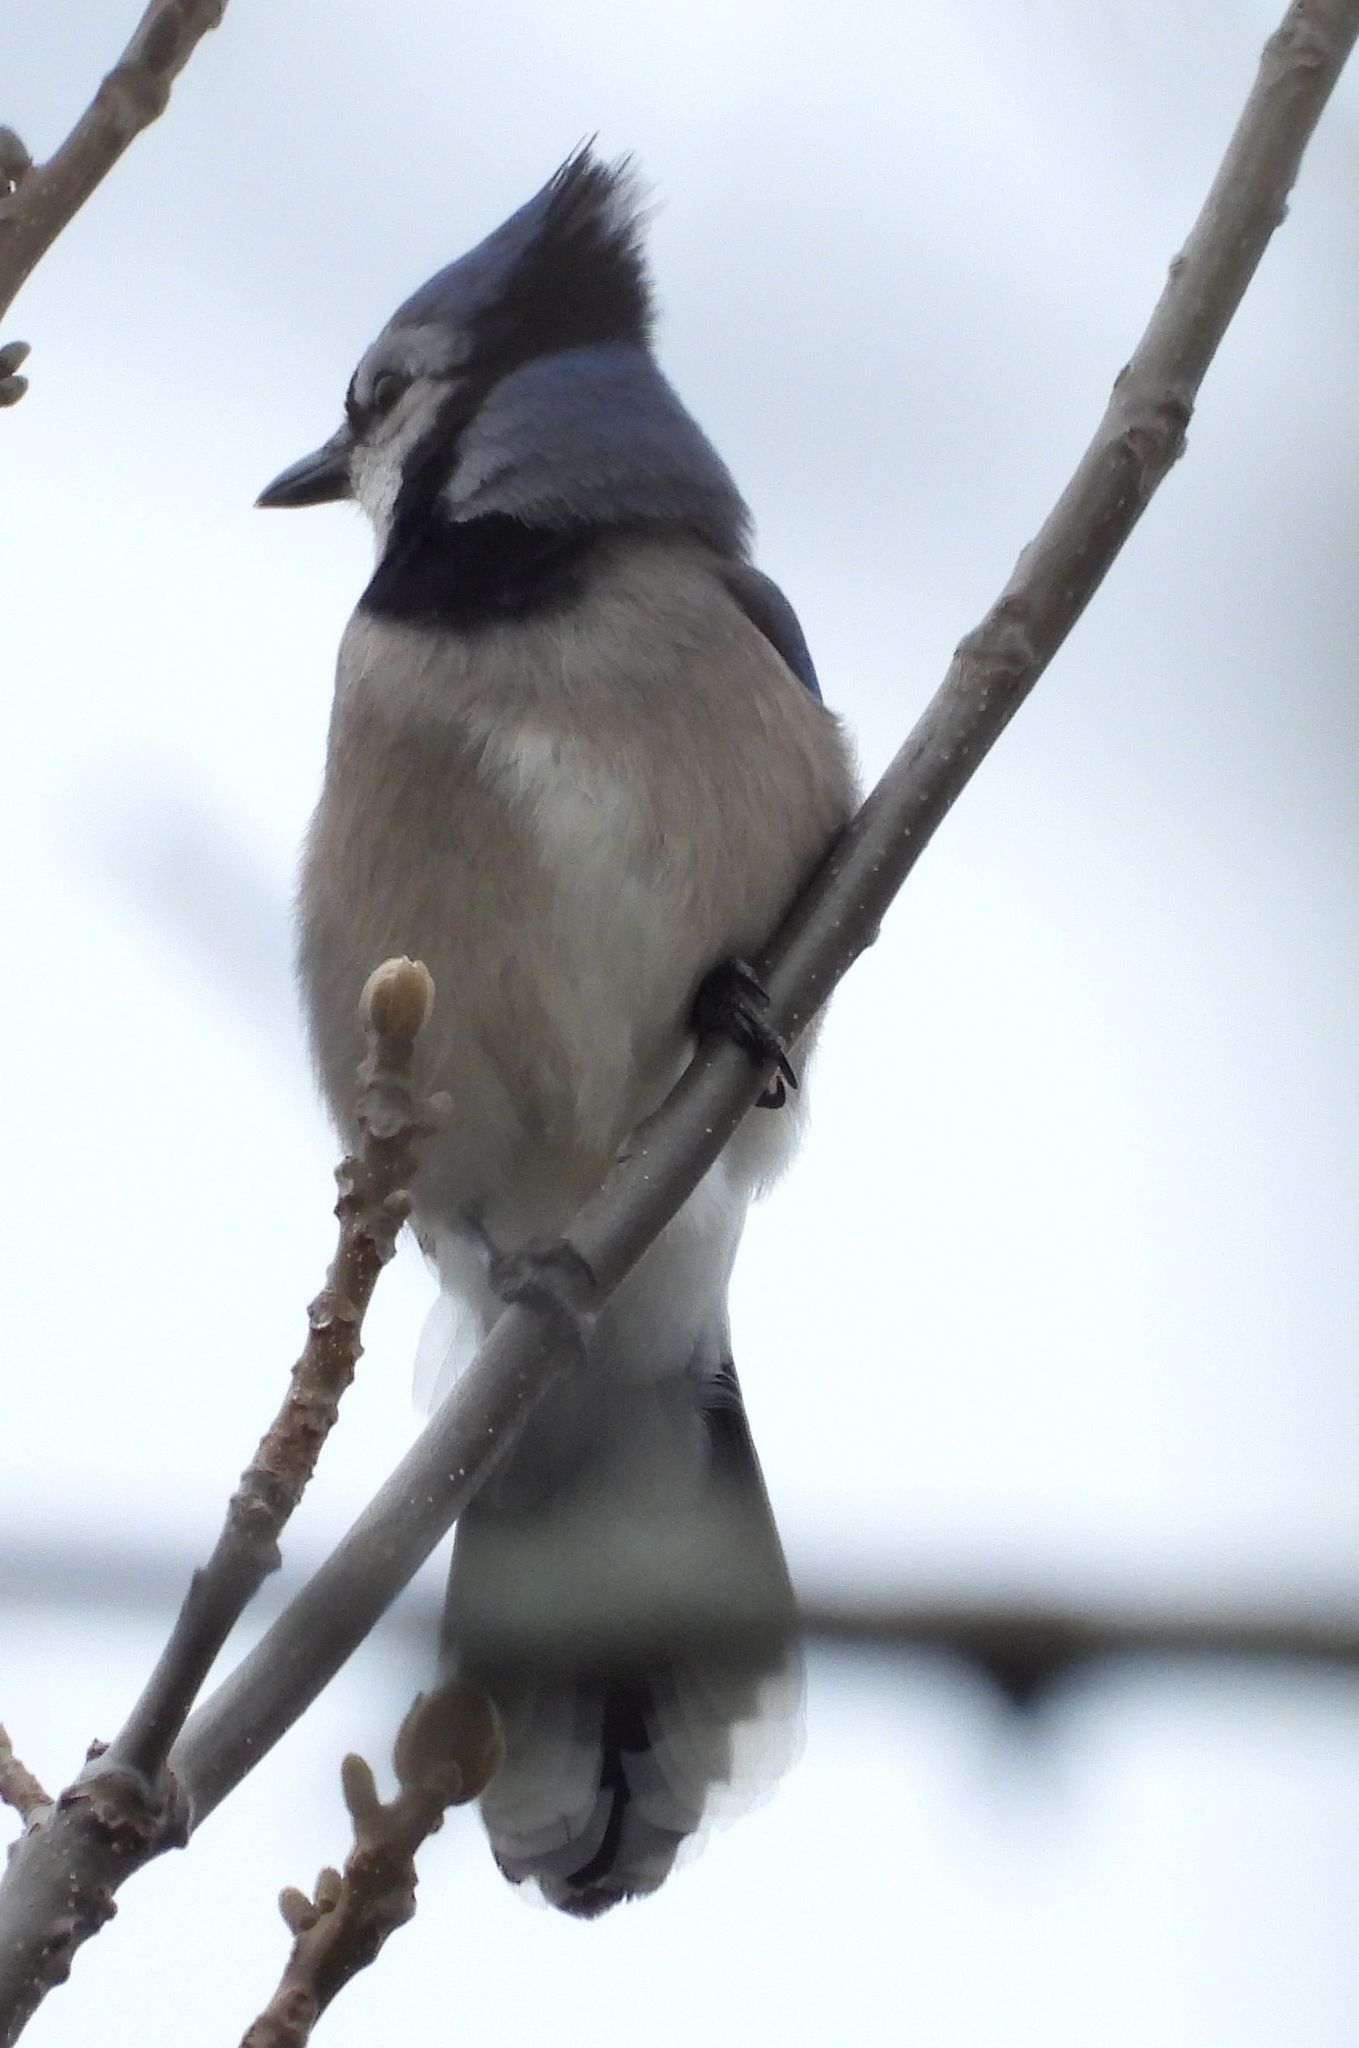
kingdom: Animalia
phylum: Chordata
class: Aves
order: Passeriformes
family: Corvidae
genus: Cyanocitta
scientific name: Cyanocitta cristata
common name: Blue jay
